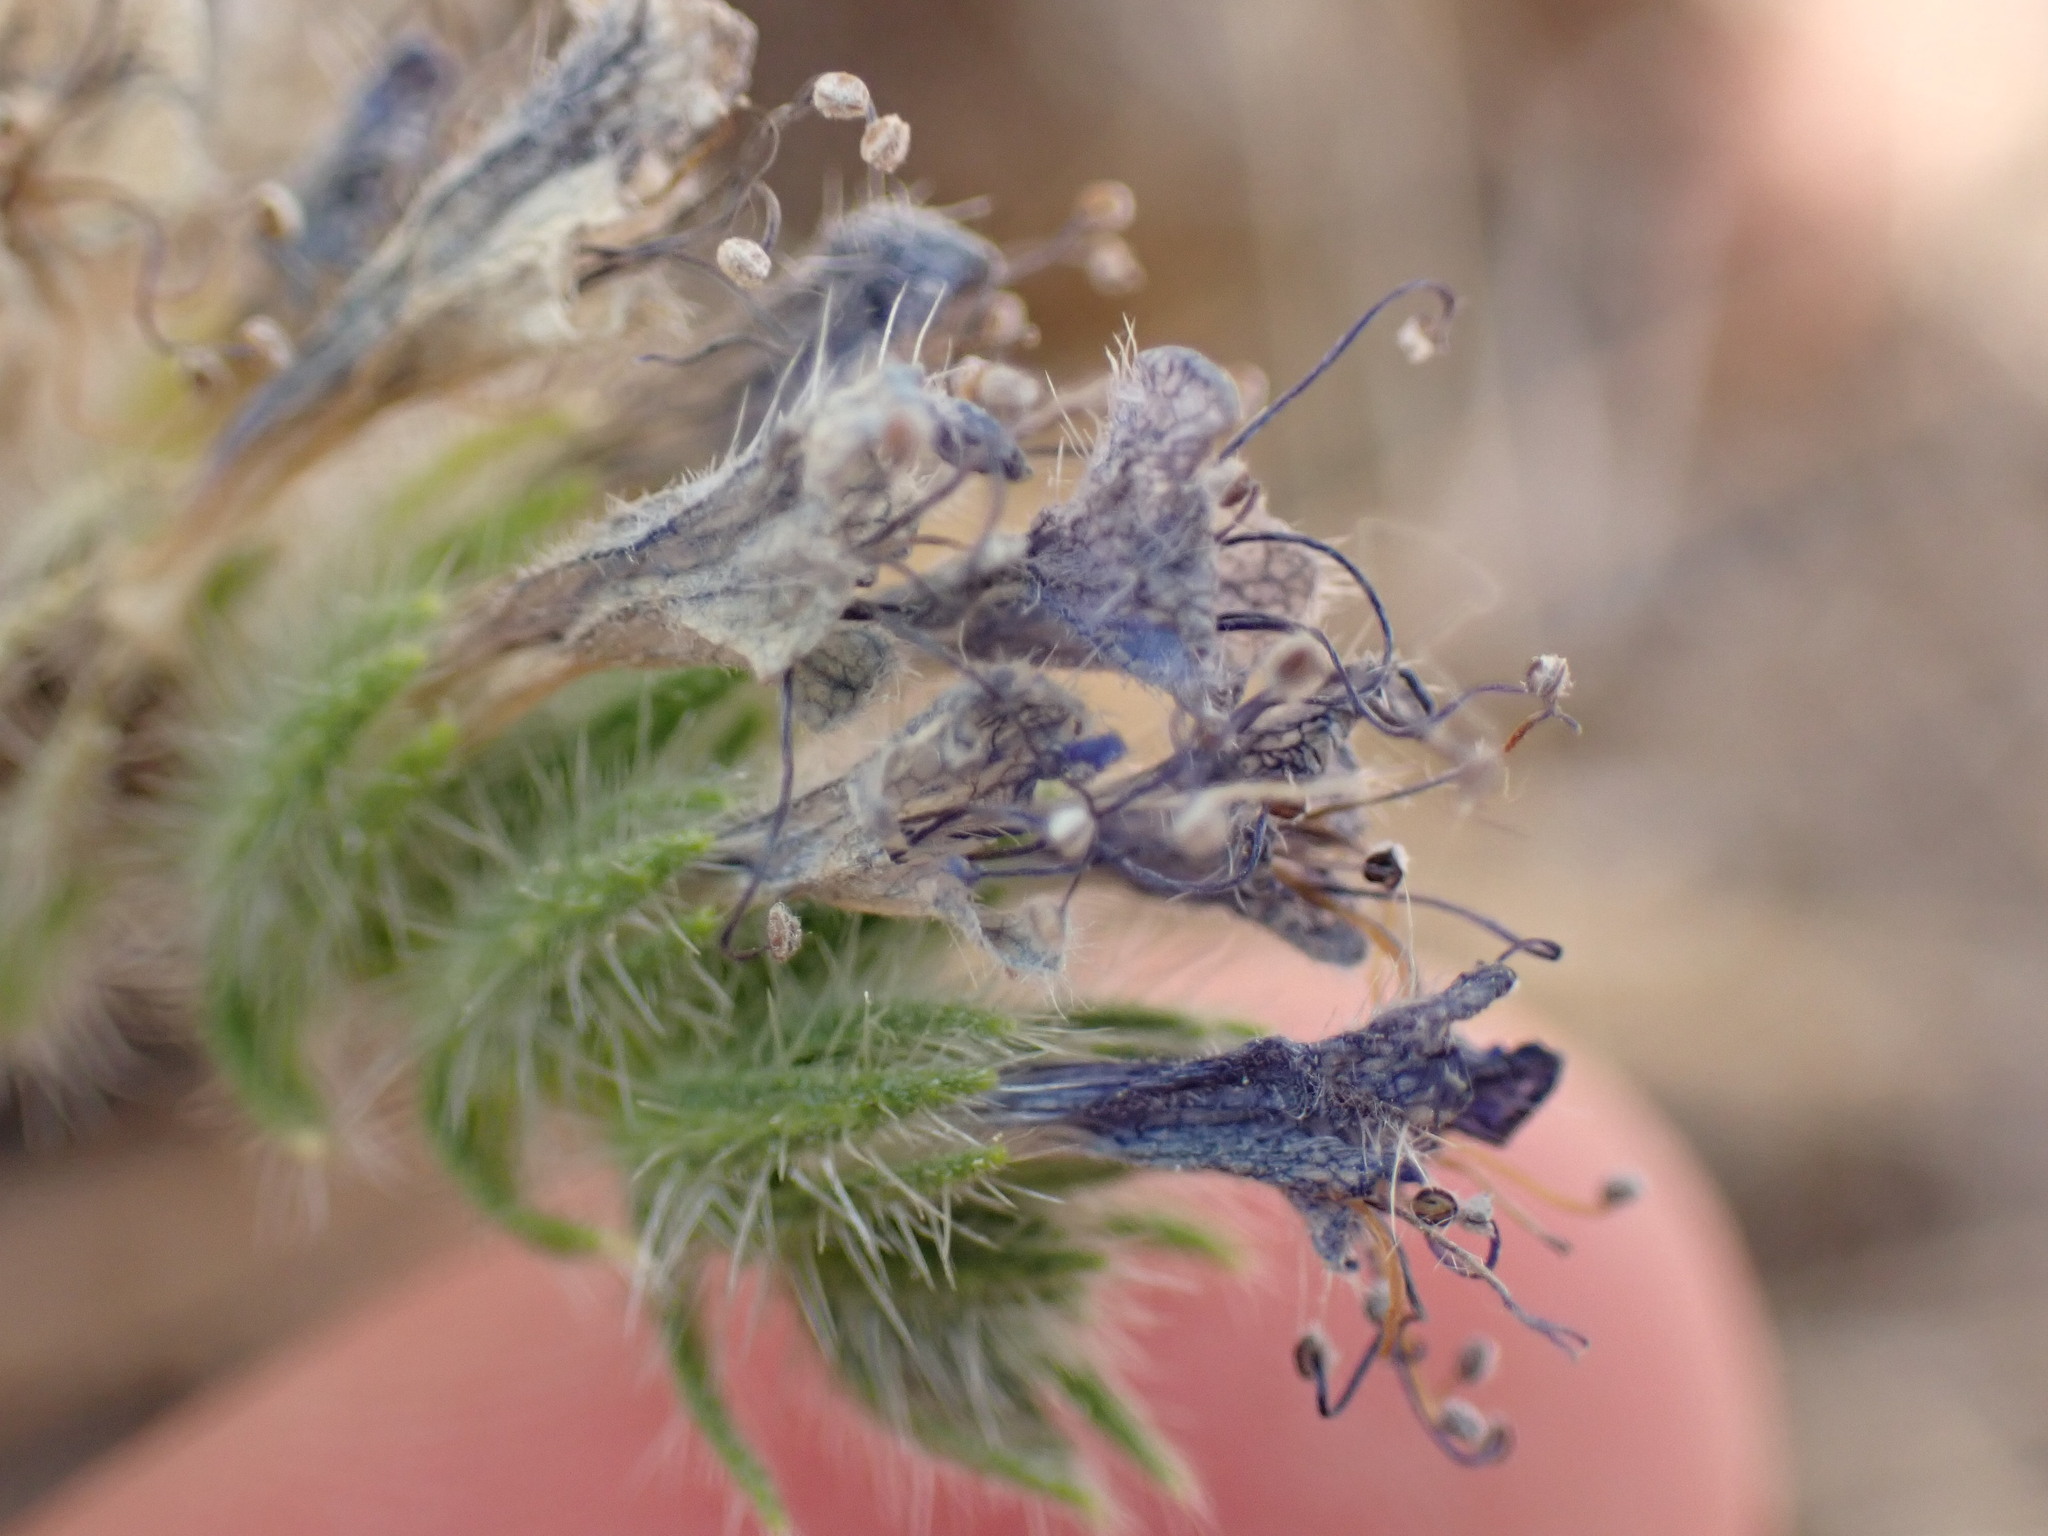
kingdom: Plantae
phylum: Tracheophyta
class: Magnoliopsida
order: Boraginales
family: Boraginaceae
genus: Echium
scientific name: Echium vulgare
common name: Common viper's bugloss
